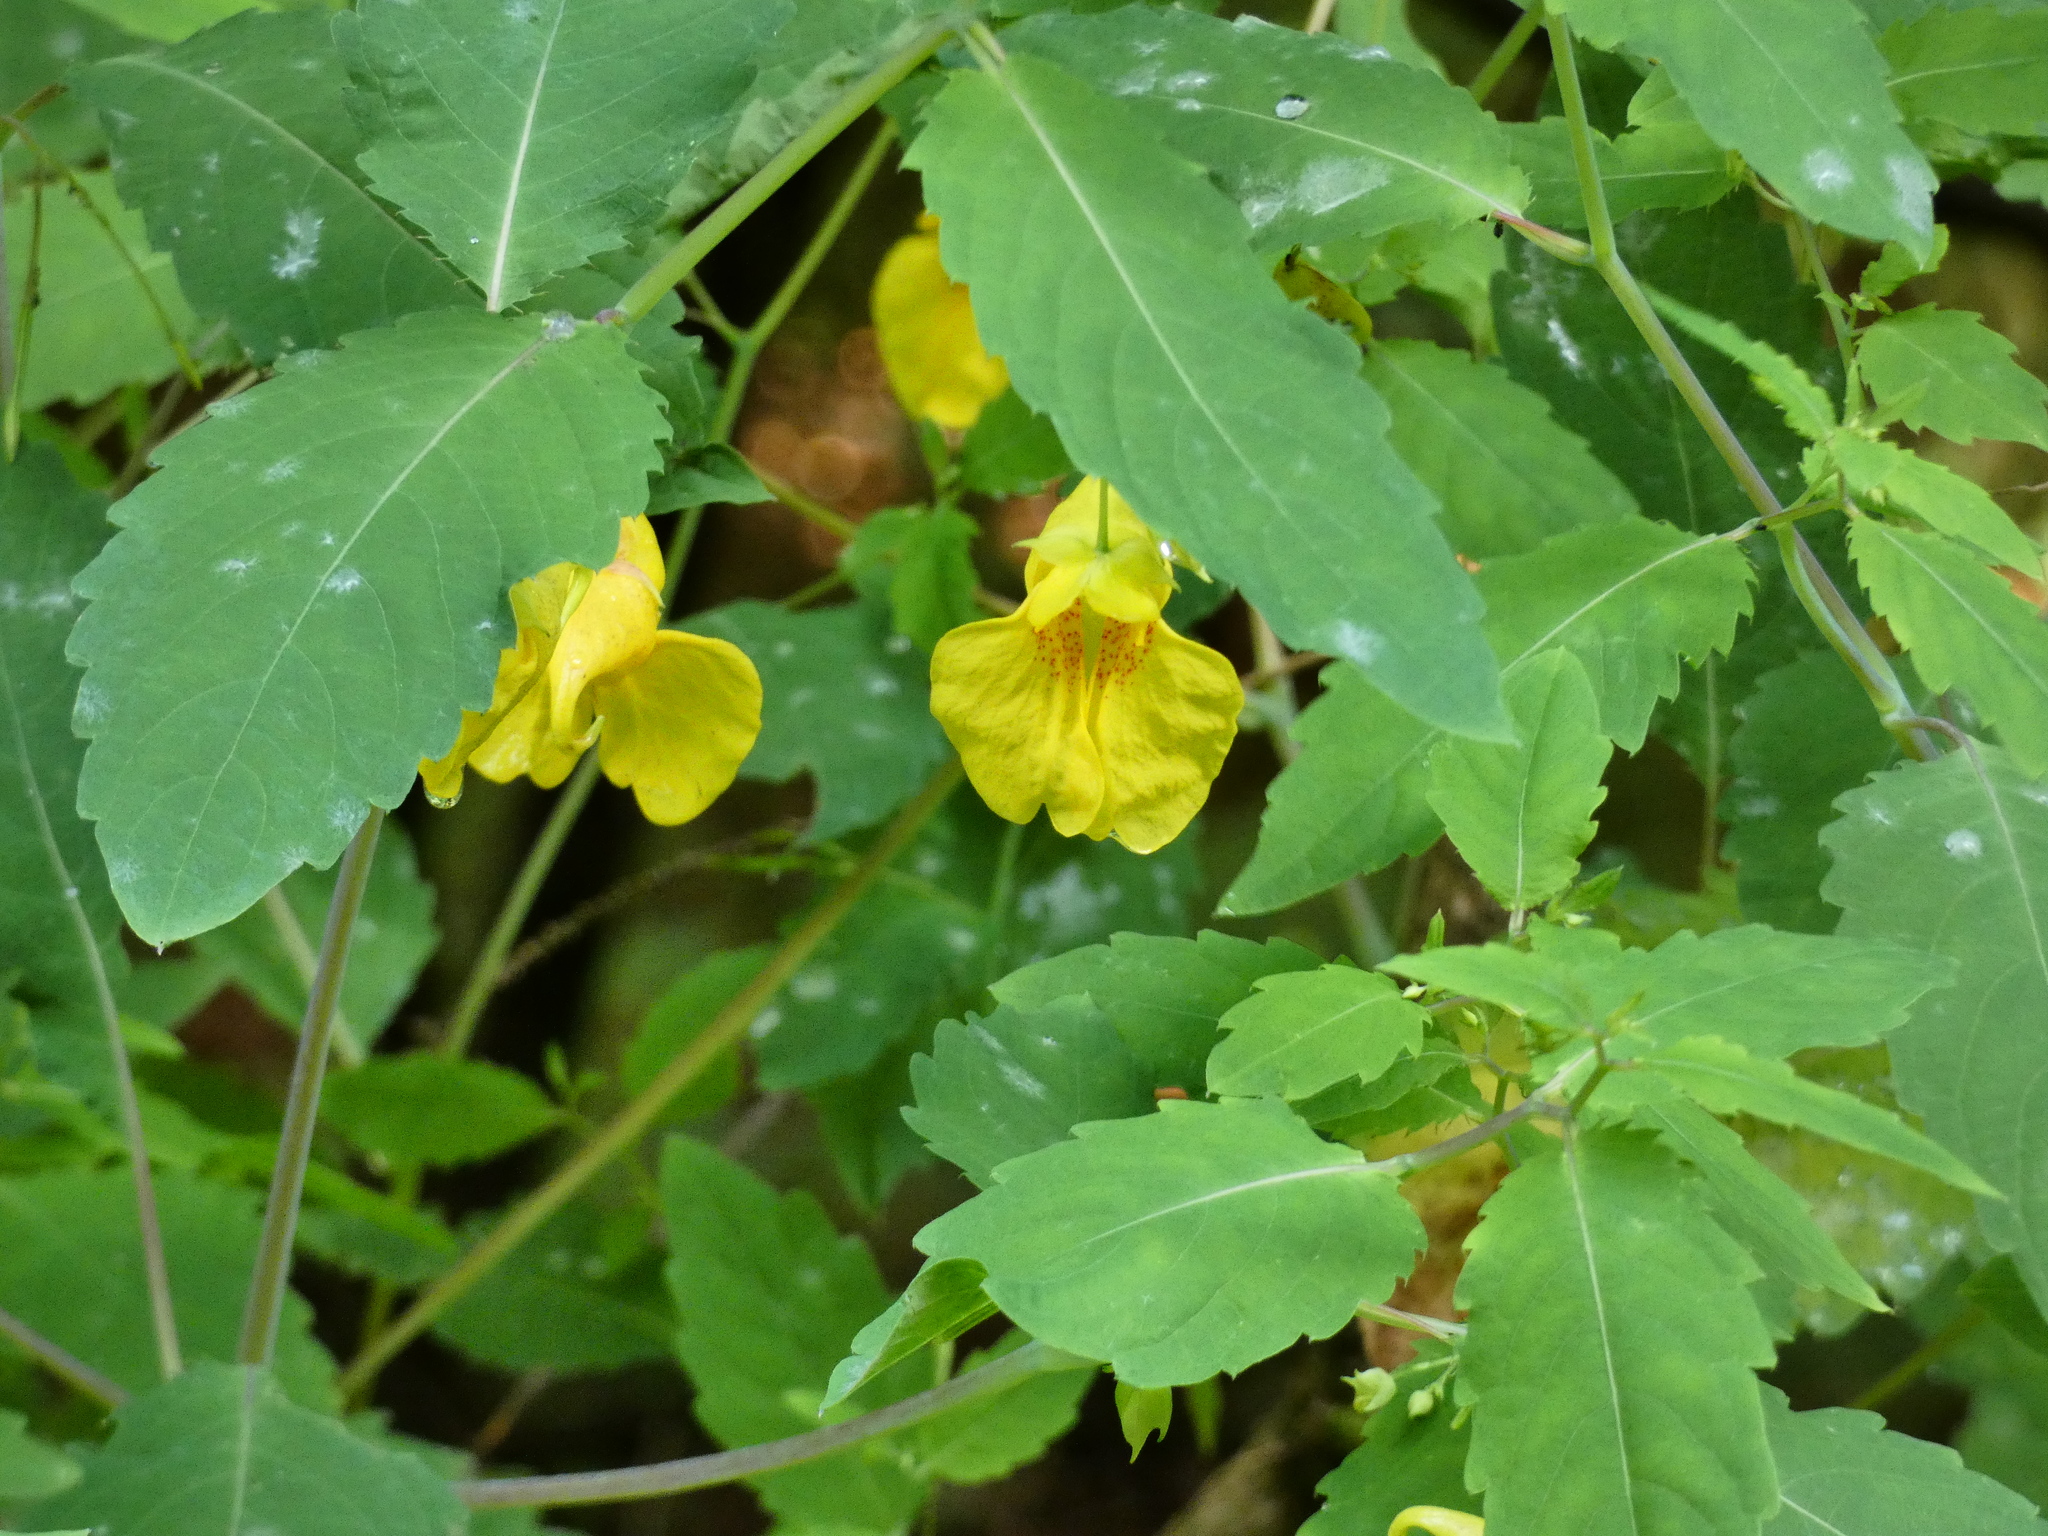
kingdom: Plantae
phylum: Tracheophyta
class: Magnoliopsida
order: Ericales
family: Balsaminaceae
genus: Impatiens
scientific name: Impatiens noli-tangere
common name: Touch-me-not balsam
